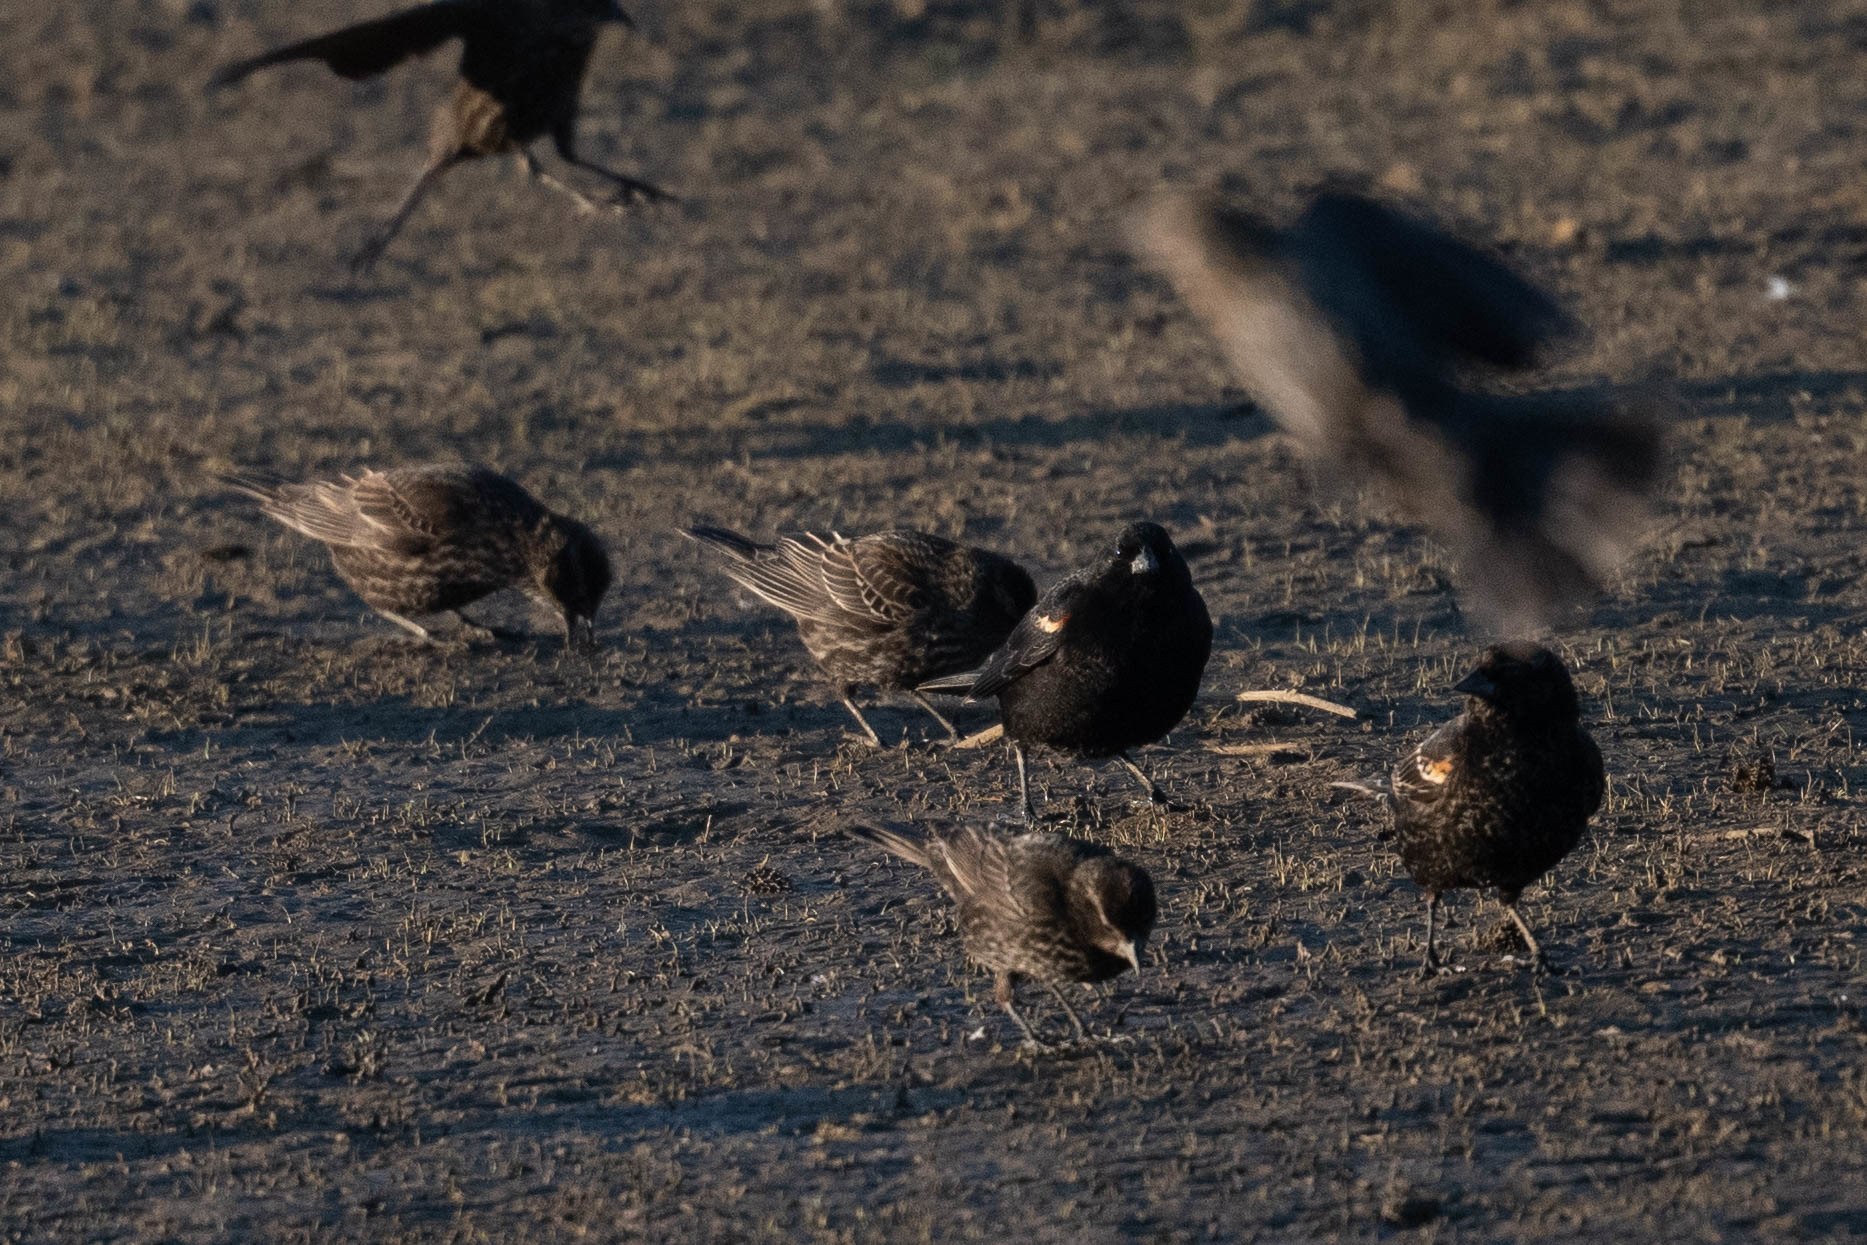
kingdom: Animalia
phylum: Chordata
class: Aves
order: Passeriformes
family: Icteridae
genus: Agelaius
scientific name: Agelaius phoeniceus
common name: Red-winged blackbird
